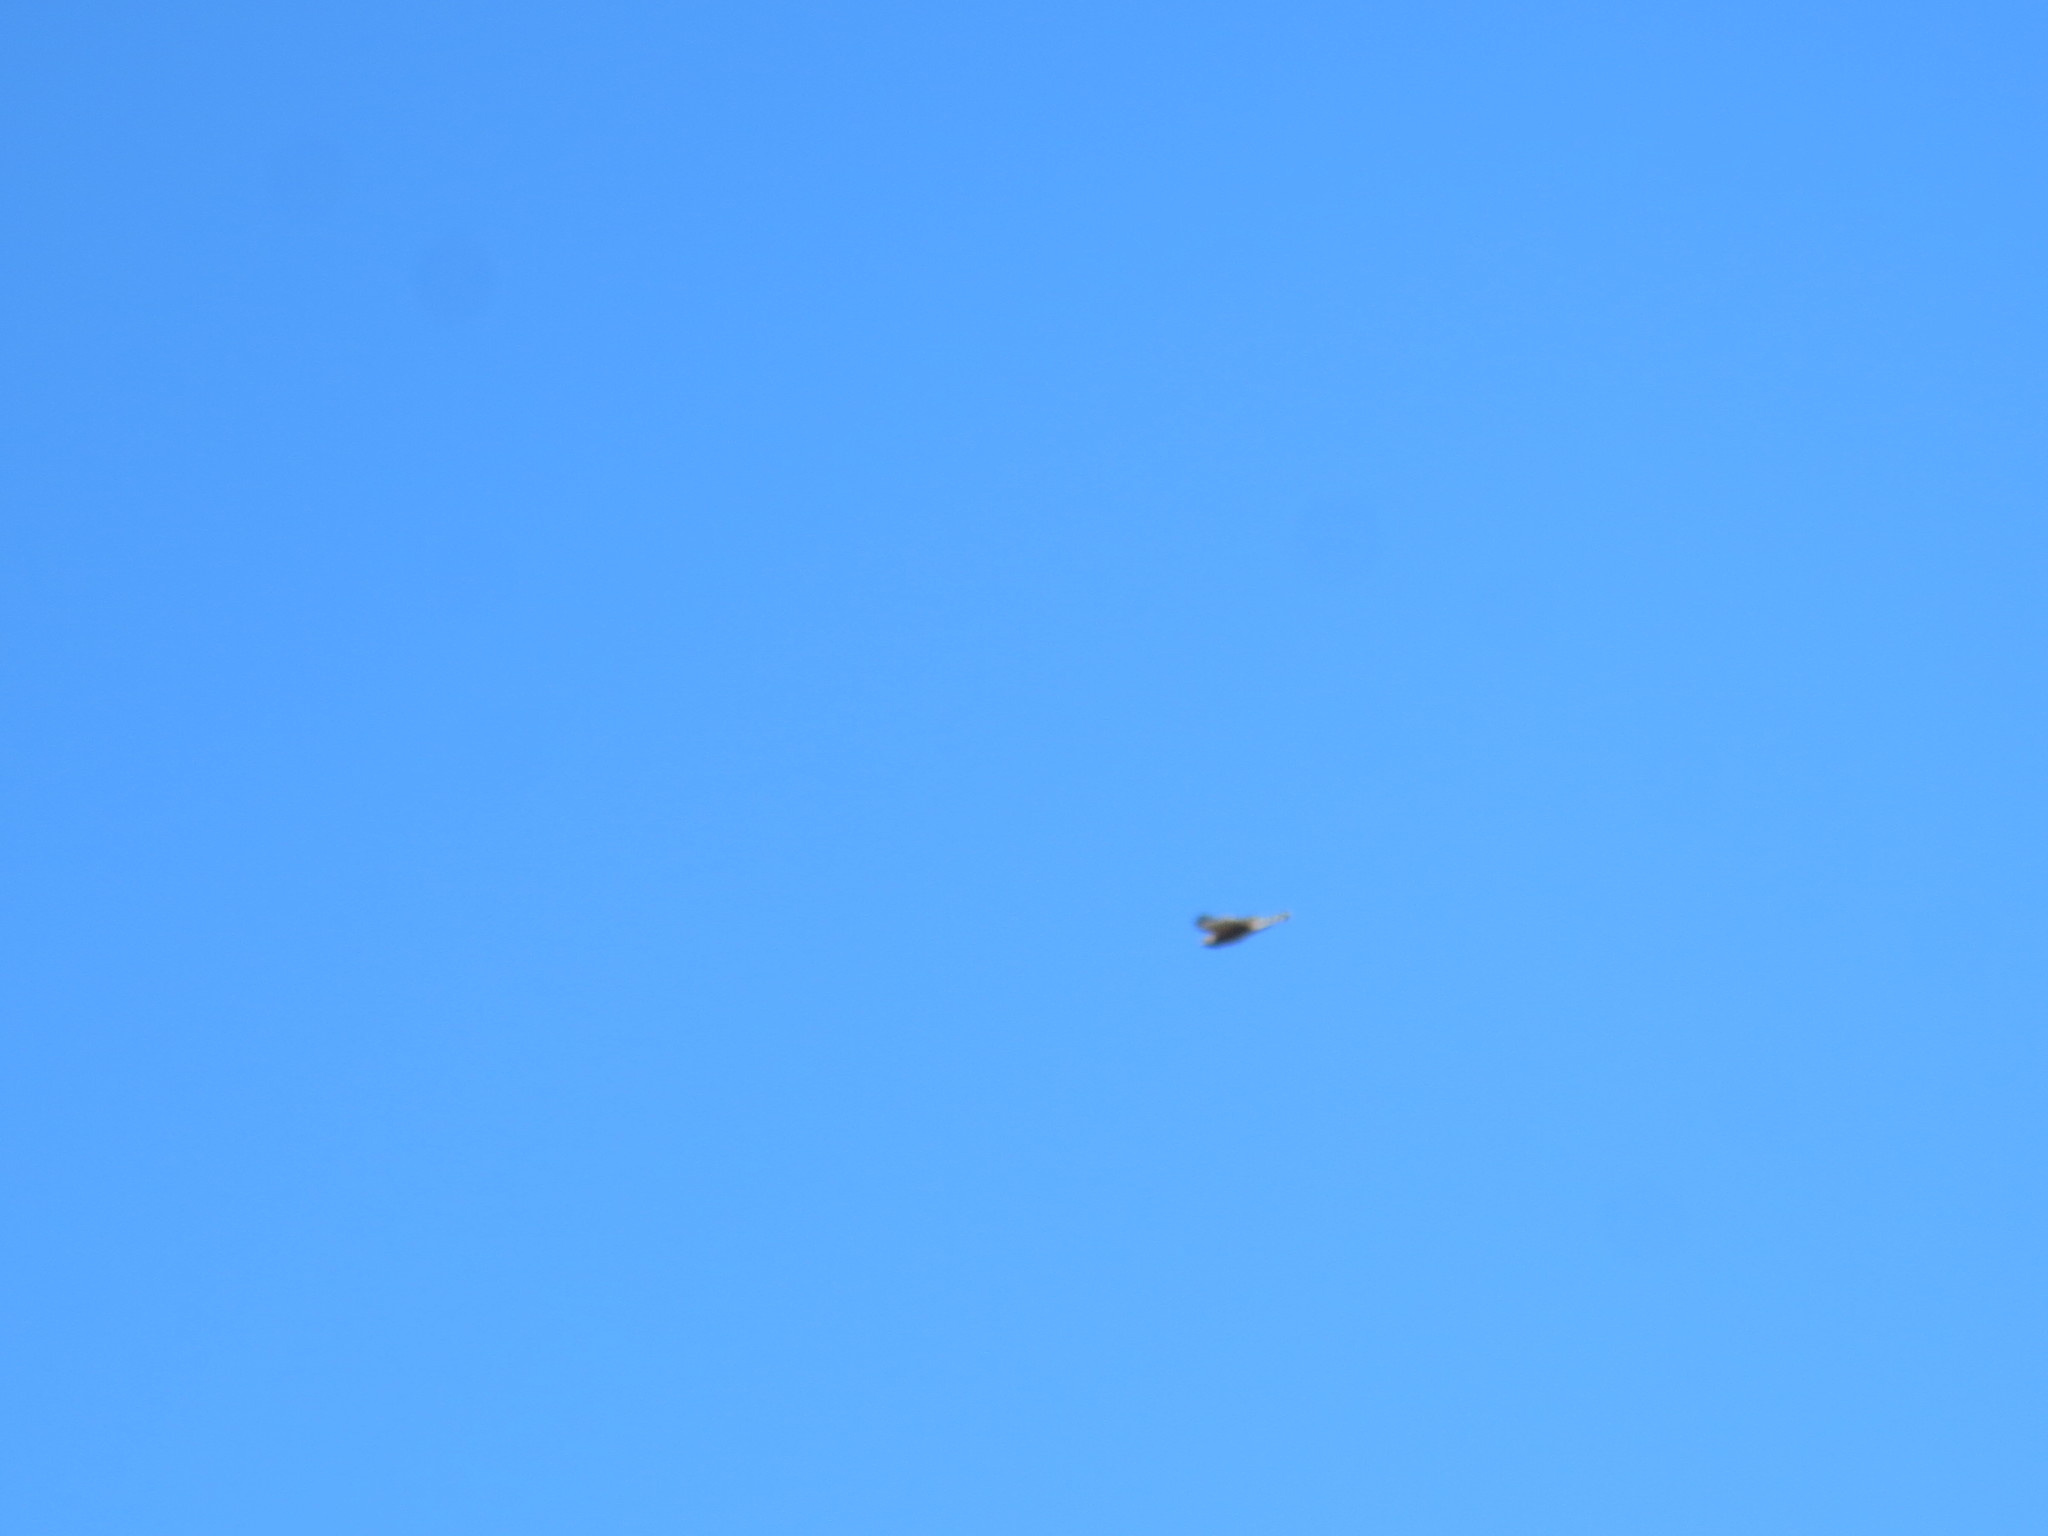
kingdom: Animalia
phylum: Chordata
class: Aves
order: Accipitriformes
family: Accipitridae
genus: Buteo
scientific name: Buteo lineatus
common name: Red-shouldered hawk
